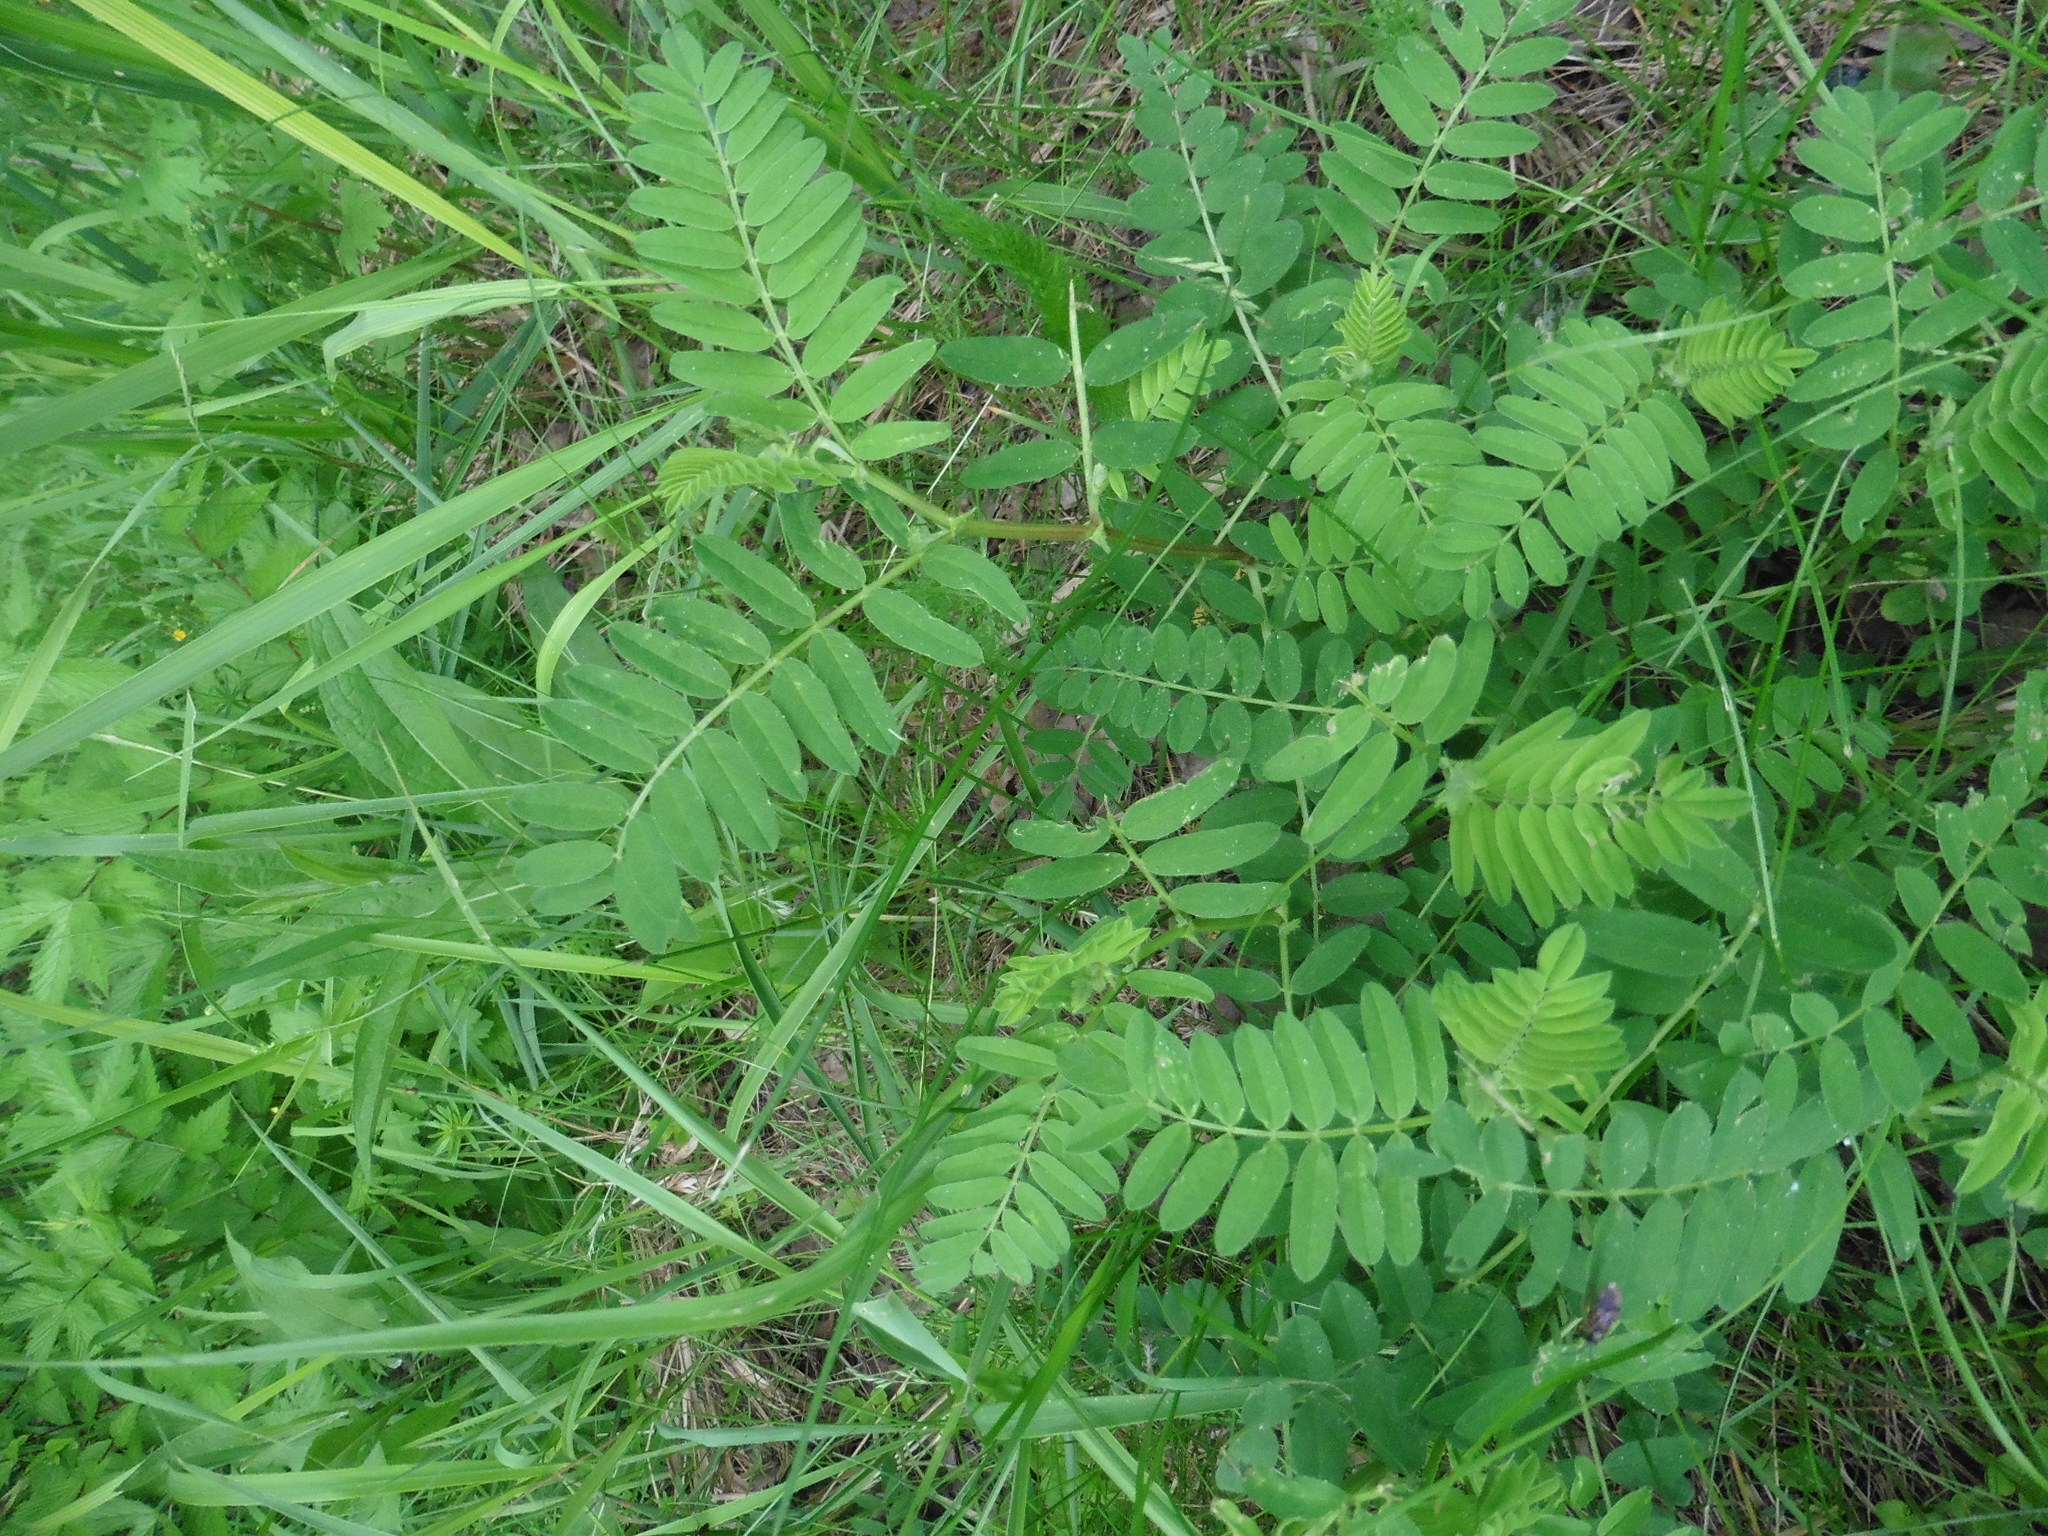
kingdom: Plantae
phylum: Tracheophyta
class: Magnoliopsida
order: Fabales
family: Fabaceae
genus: Astragalus
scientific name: Astragalus cicer
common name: Chick-pea milk-vetch
